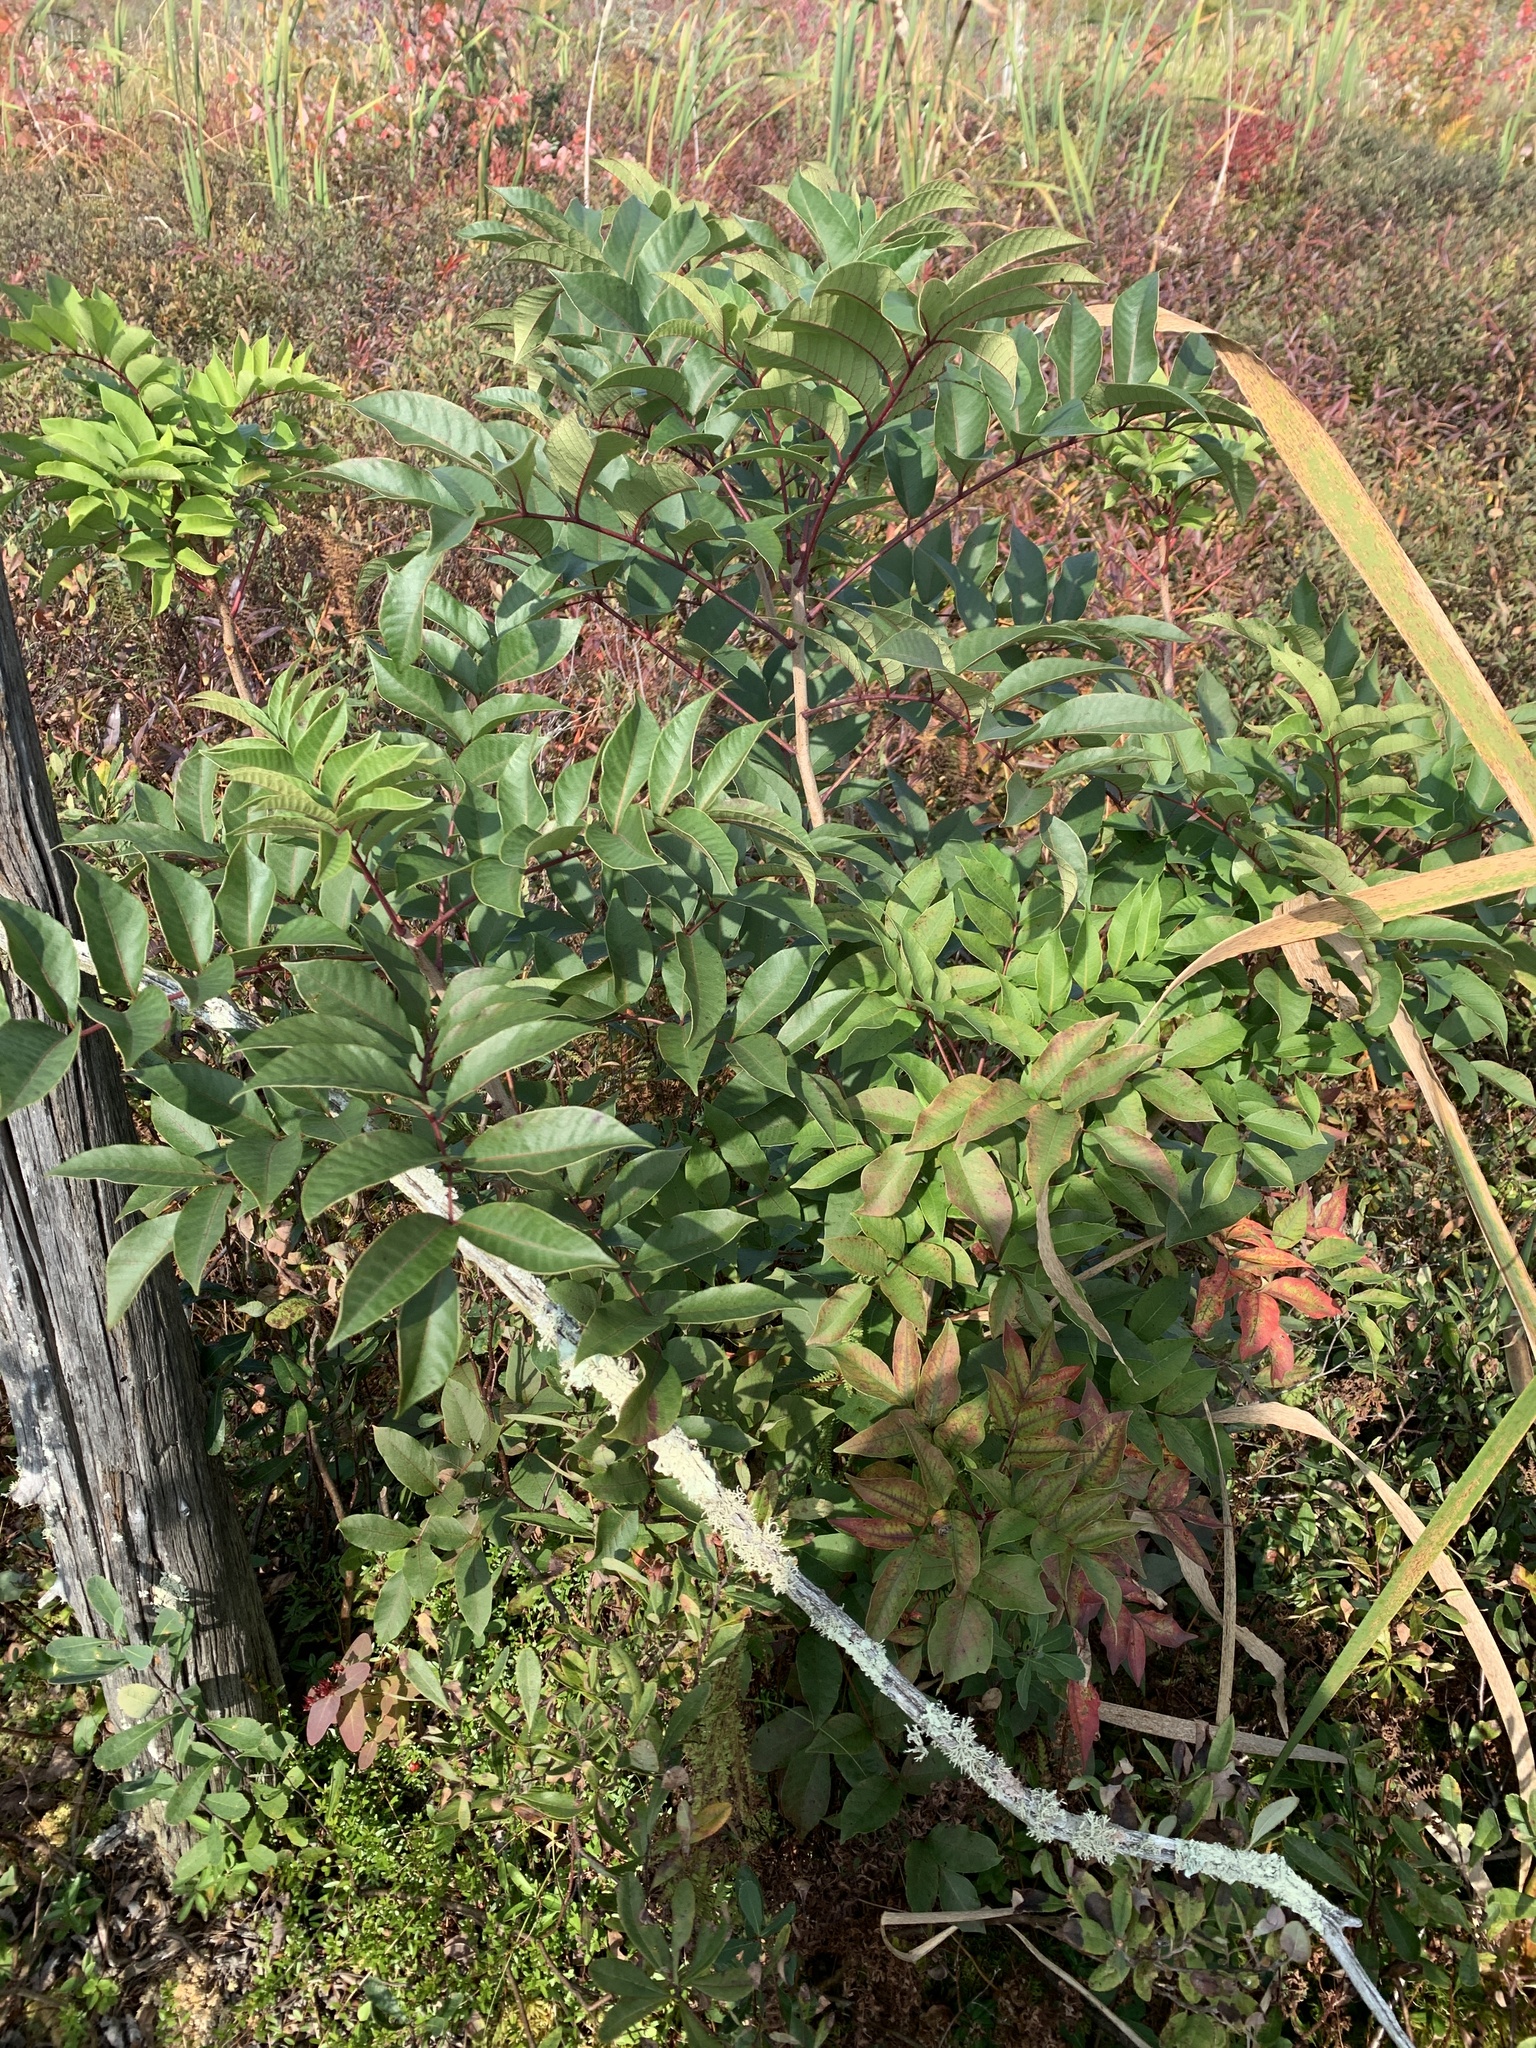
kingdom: Plantae
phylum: Tracheophyta
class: Magnoliopsida
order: Sapindales
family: Anacardiaceae
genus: Toxicodendron
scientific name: Toxicodendron vernix
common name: Poison sumac
